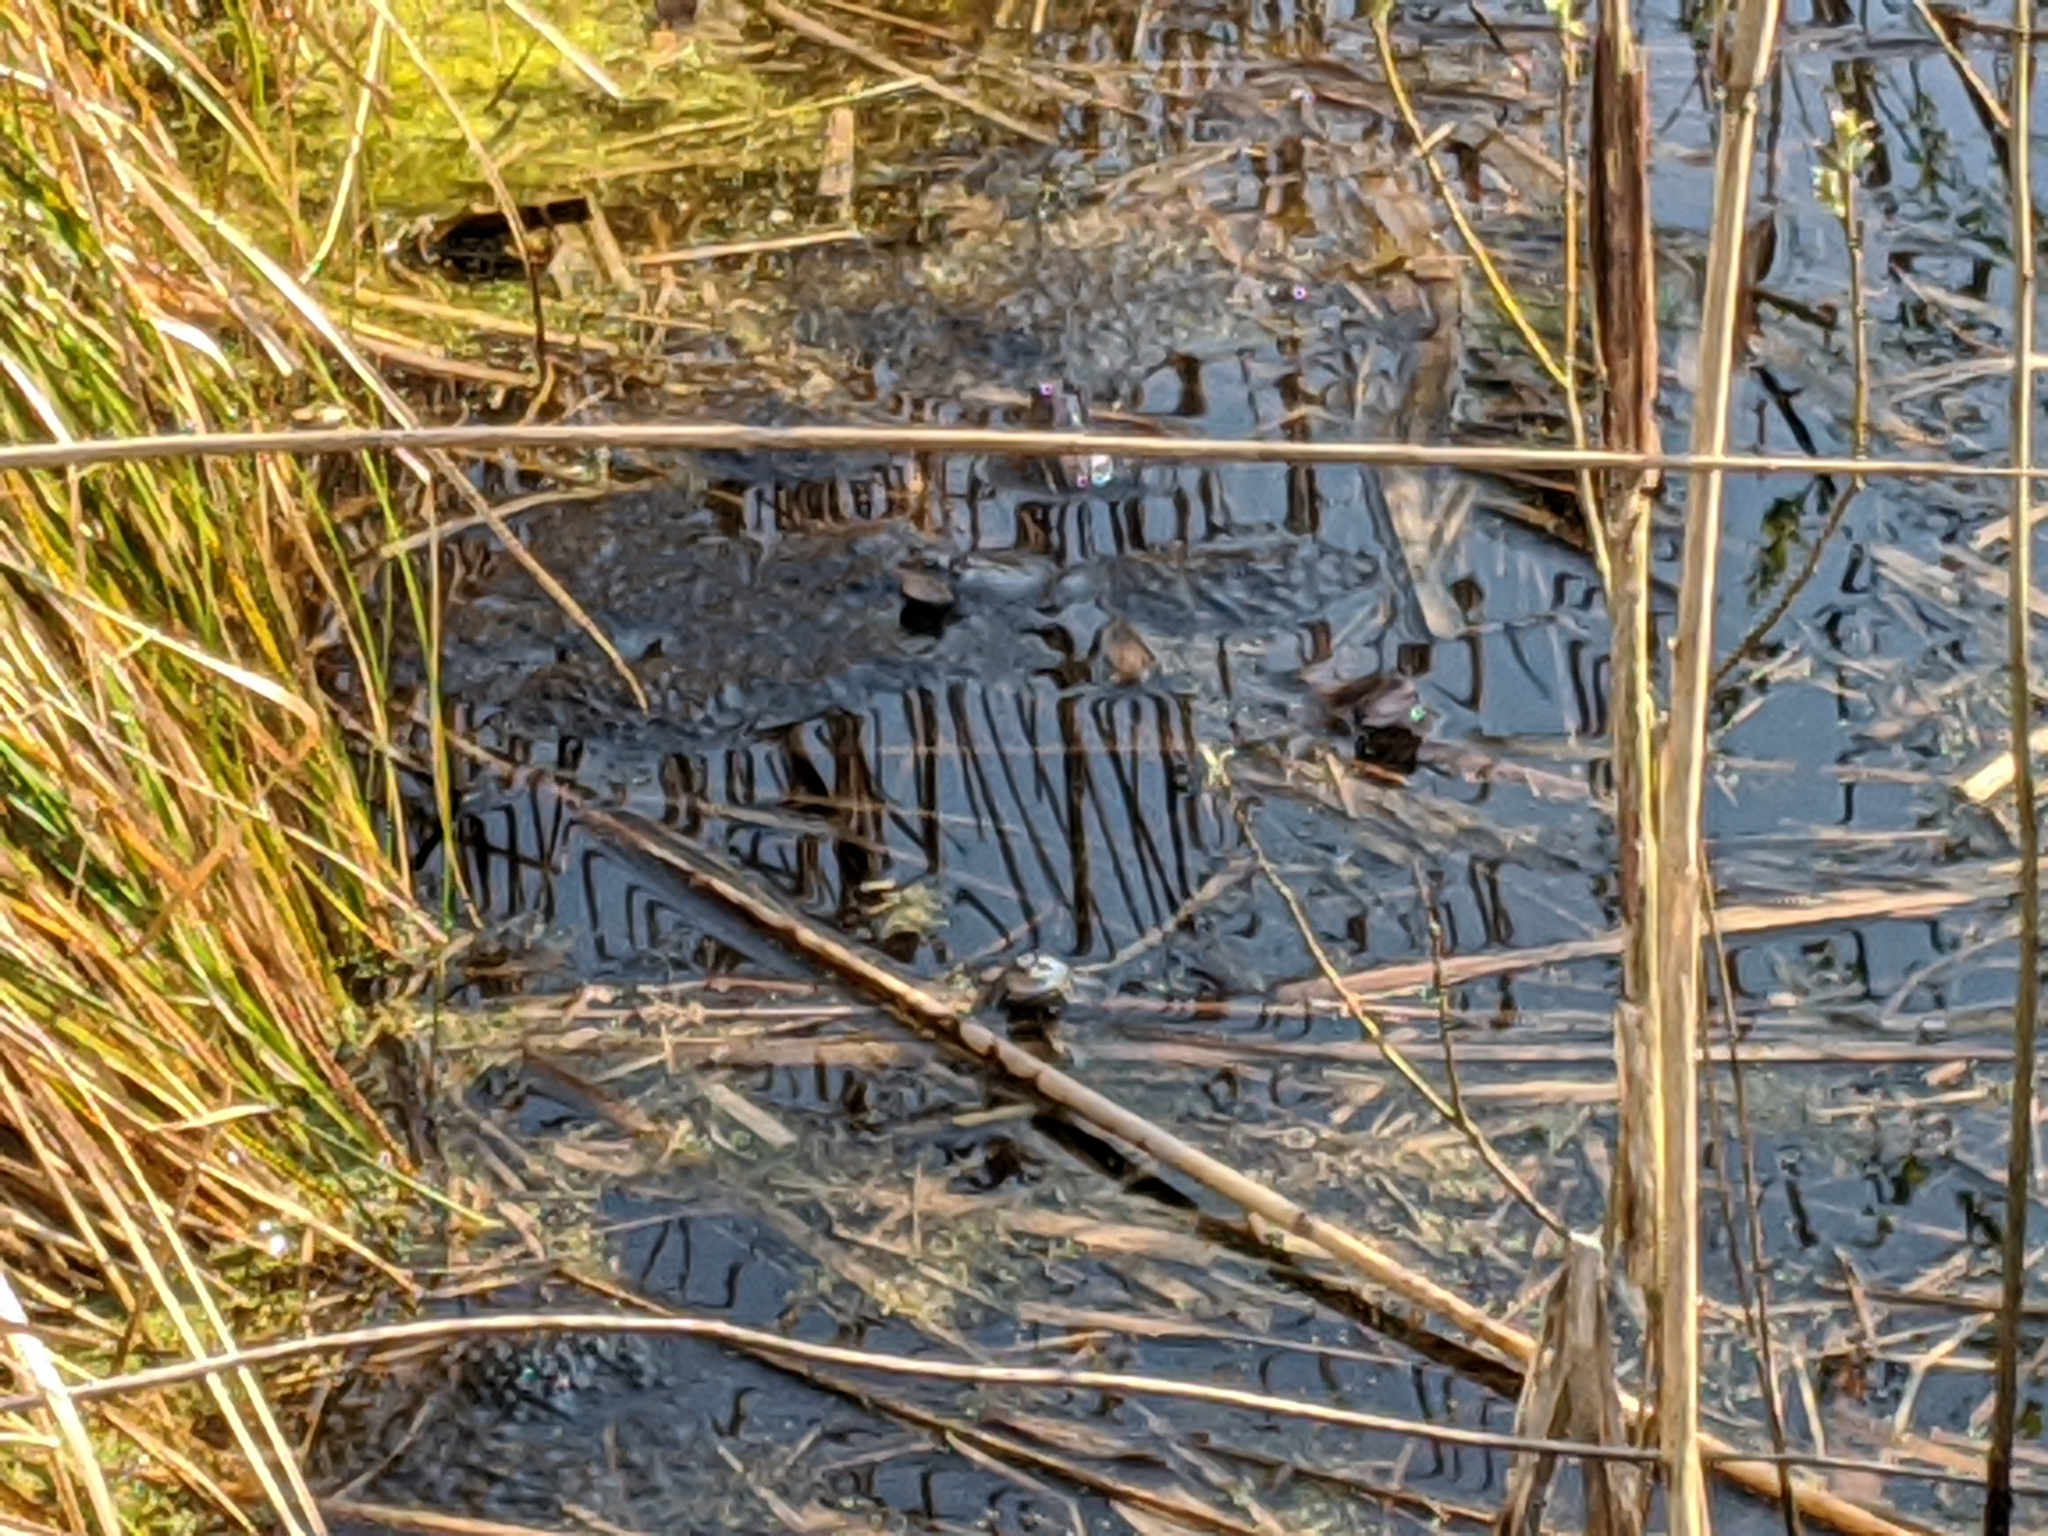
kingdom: Animalia
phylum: Chordata
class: Amphibia
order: Anura
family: Ranidae
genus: Rana
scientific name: Rana arvalis
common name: Moor frog
